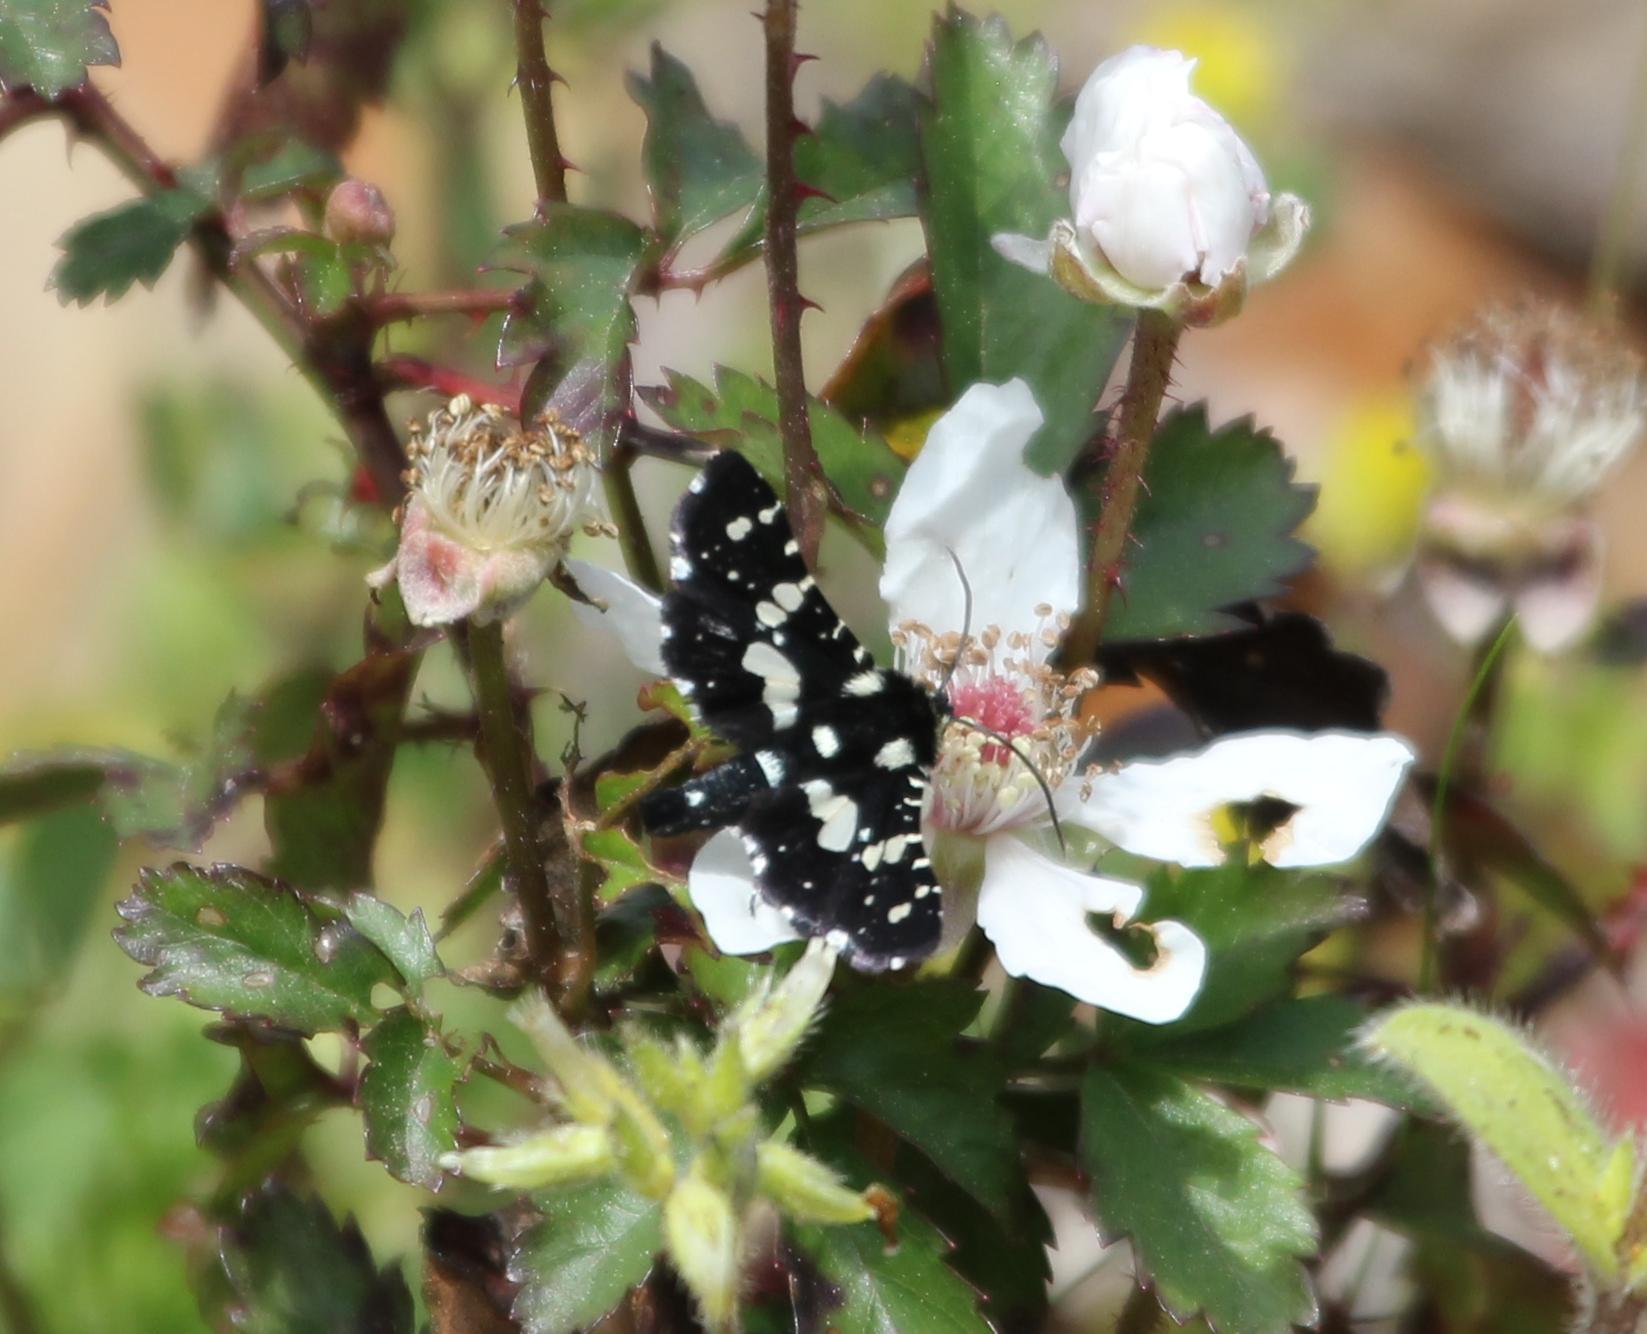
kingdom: Animalia
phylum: Arthropoda
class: Insecta
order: Lepidoptera
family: Thyrididae
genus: Pseudothyris
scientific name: Pseudothyris sepulchralis
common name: Mournful thyris moth
